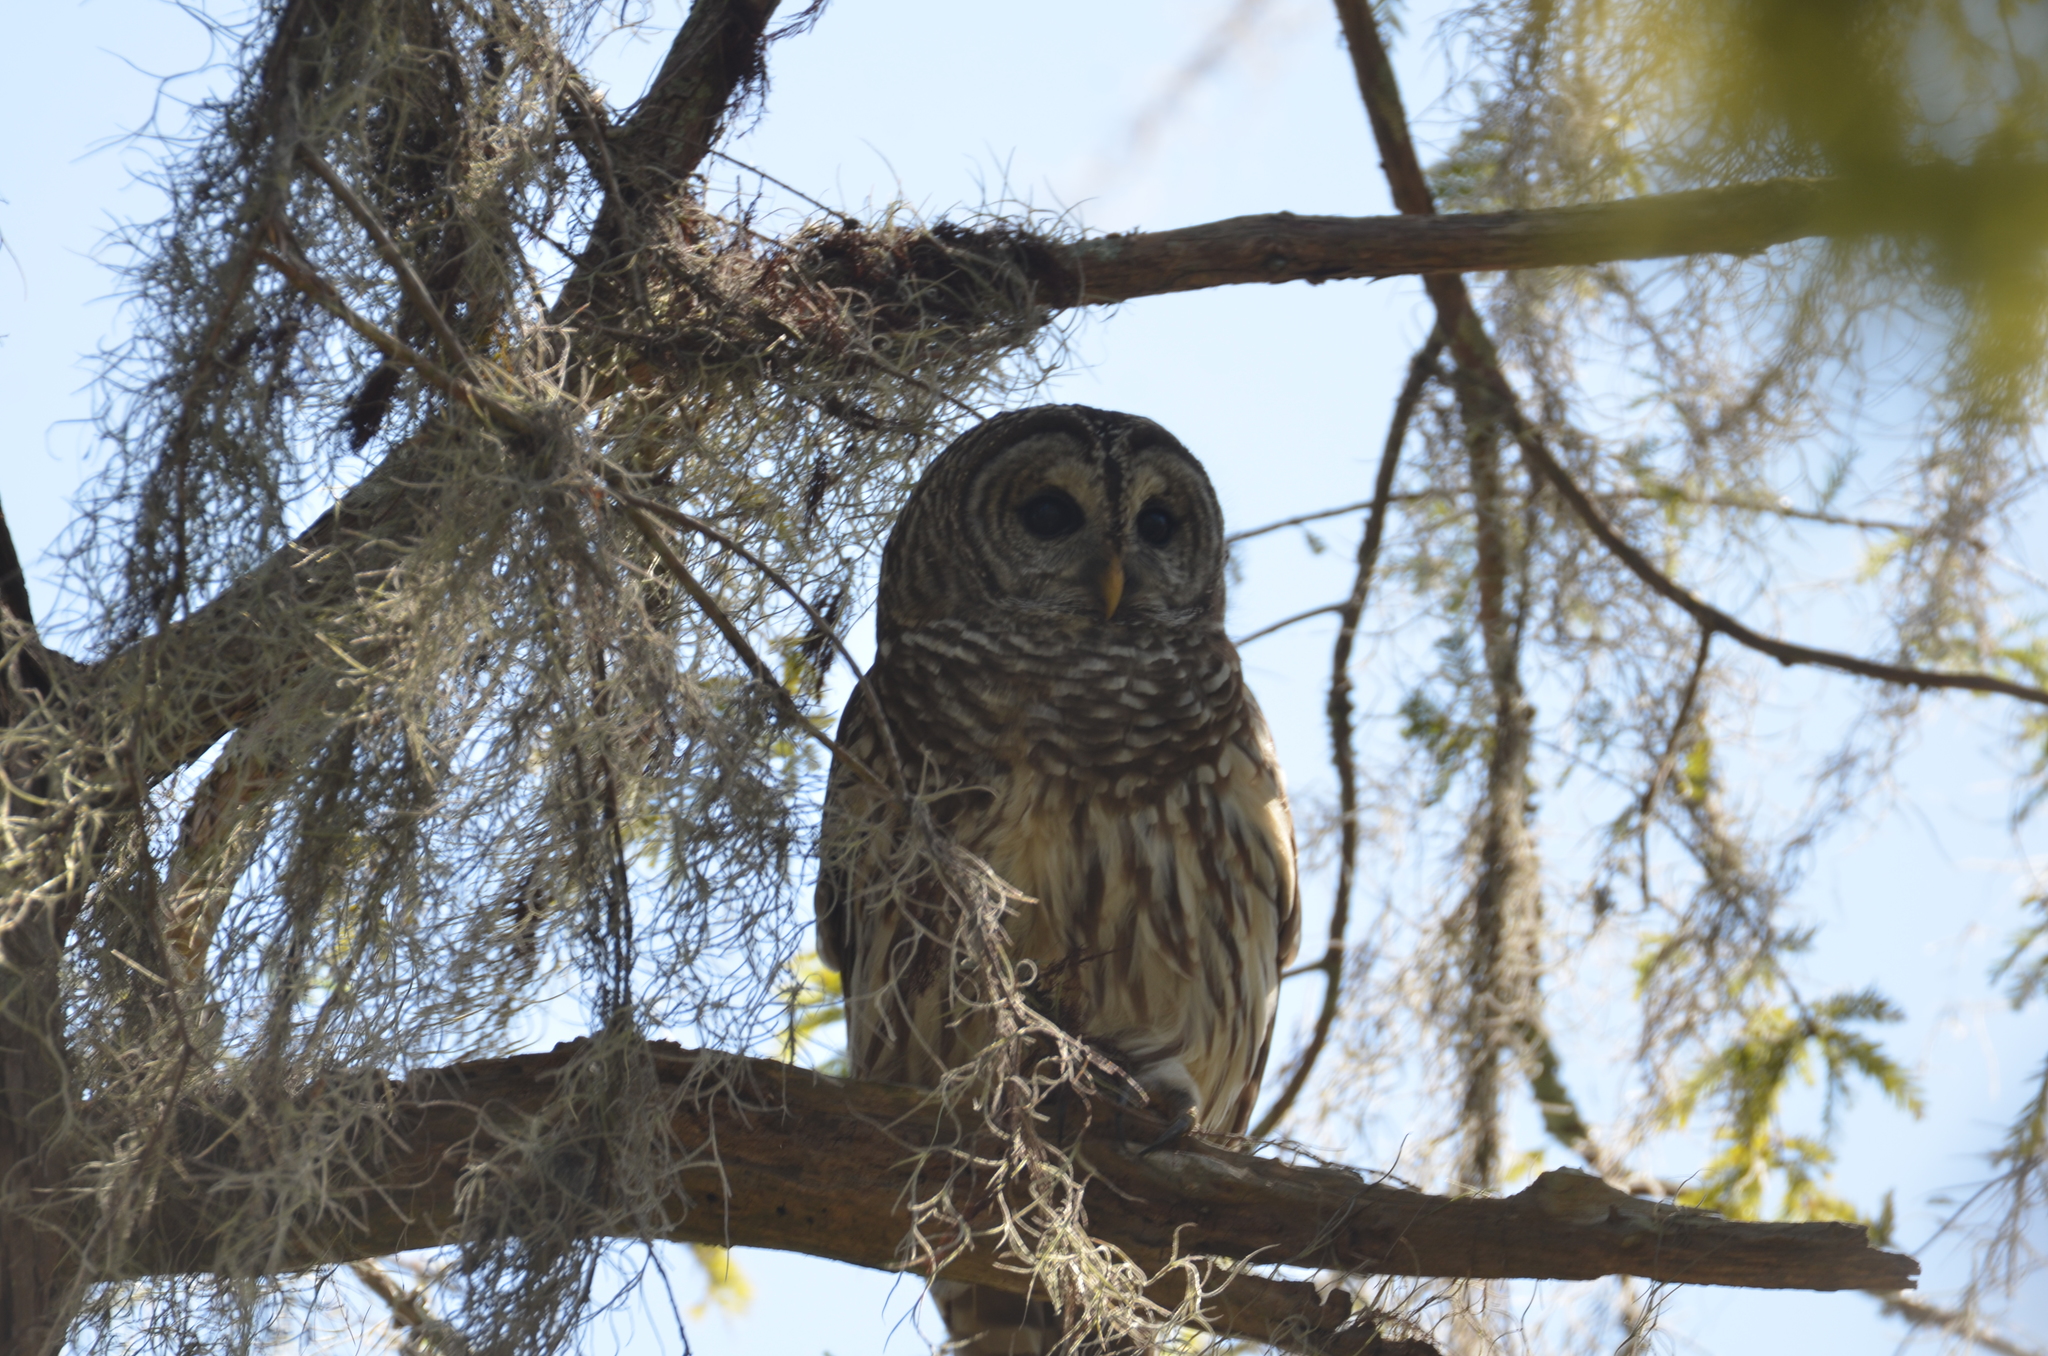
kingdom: Animalia
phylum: Chordata
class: Aves
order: Strigiformes
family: Strigidae
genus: Strix
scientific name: Strix varia
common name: Barred owl
